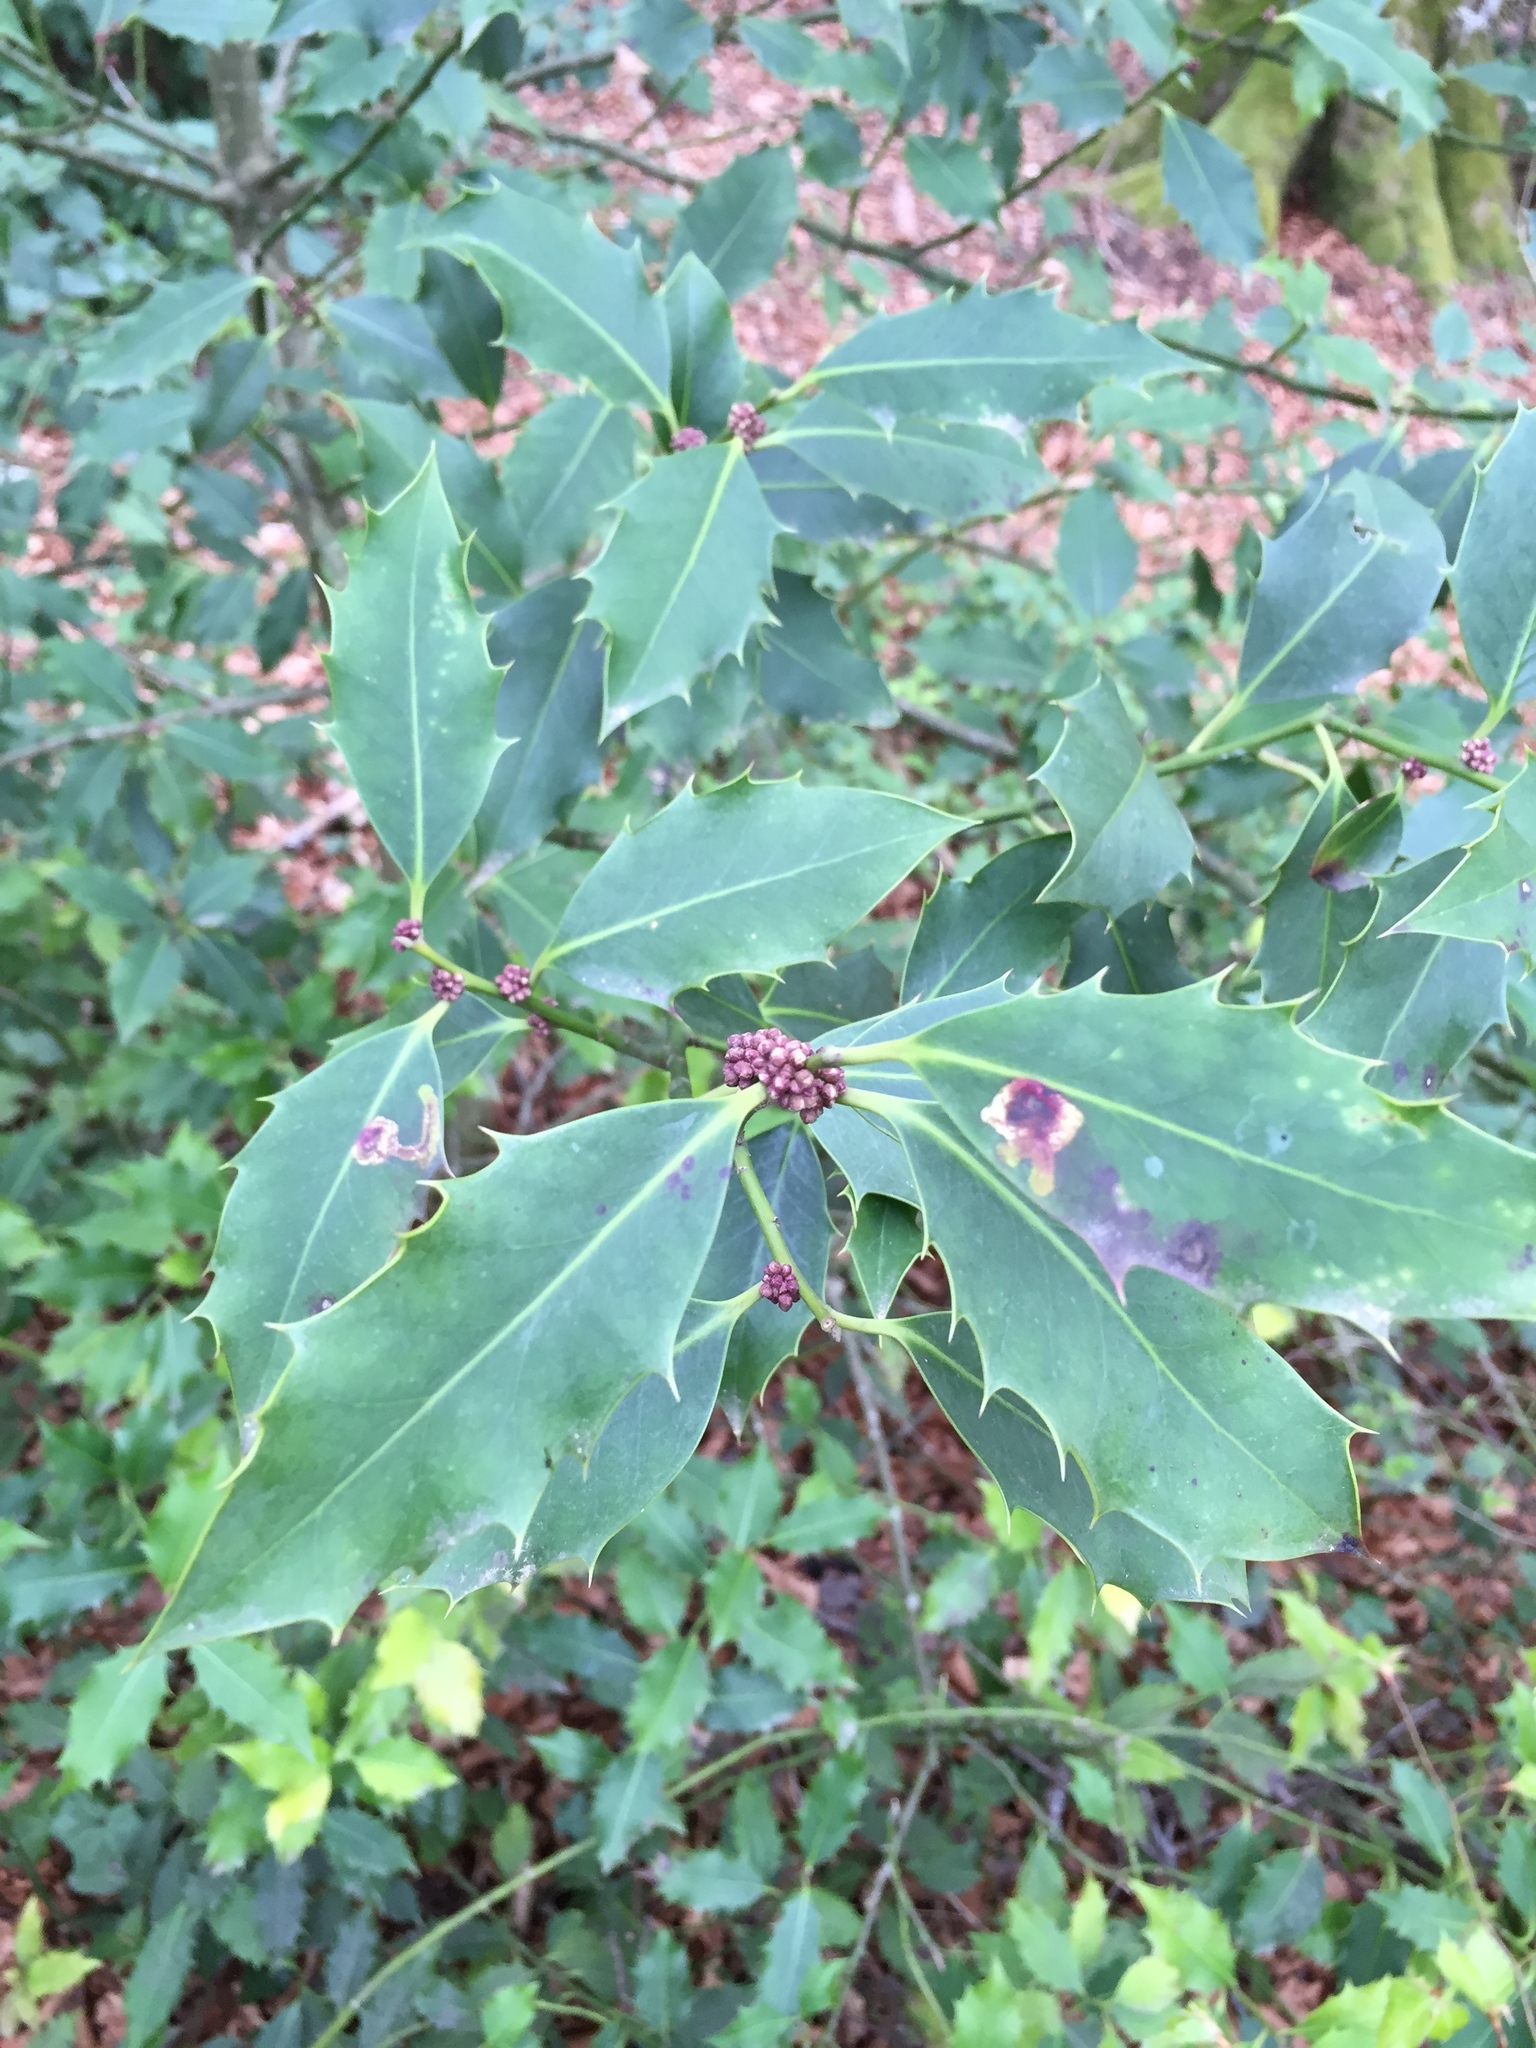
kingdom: Plantae
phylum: Tracheophyta
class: Magnoliopsida
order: Aquifoliales
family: Aquifoliaceae
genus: Ilex
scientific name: Ilex aquifolium
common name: English holly
